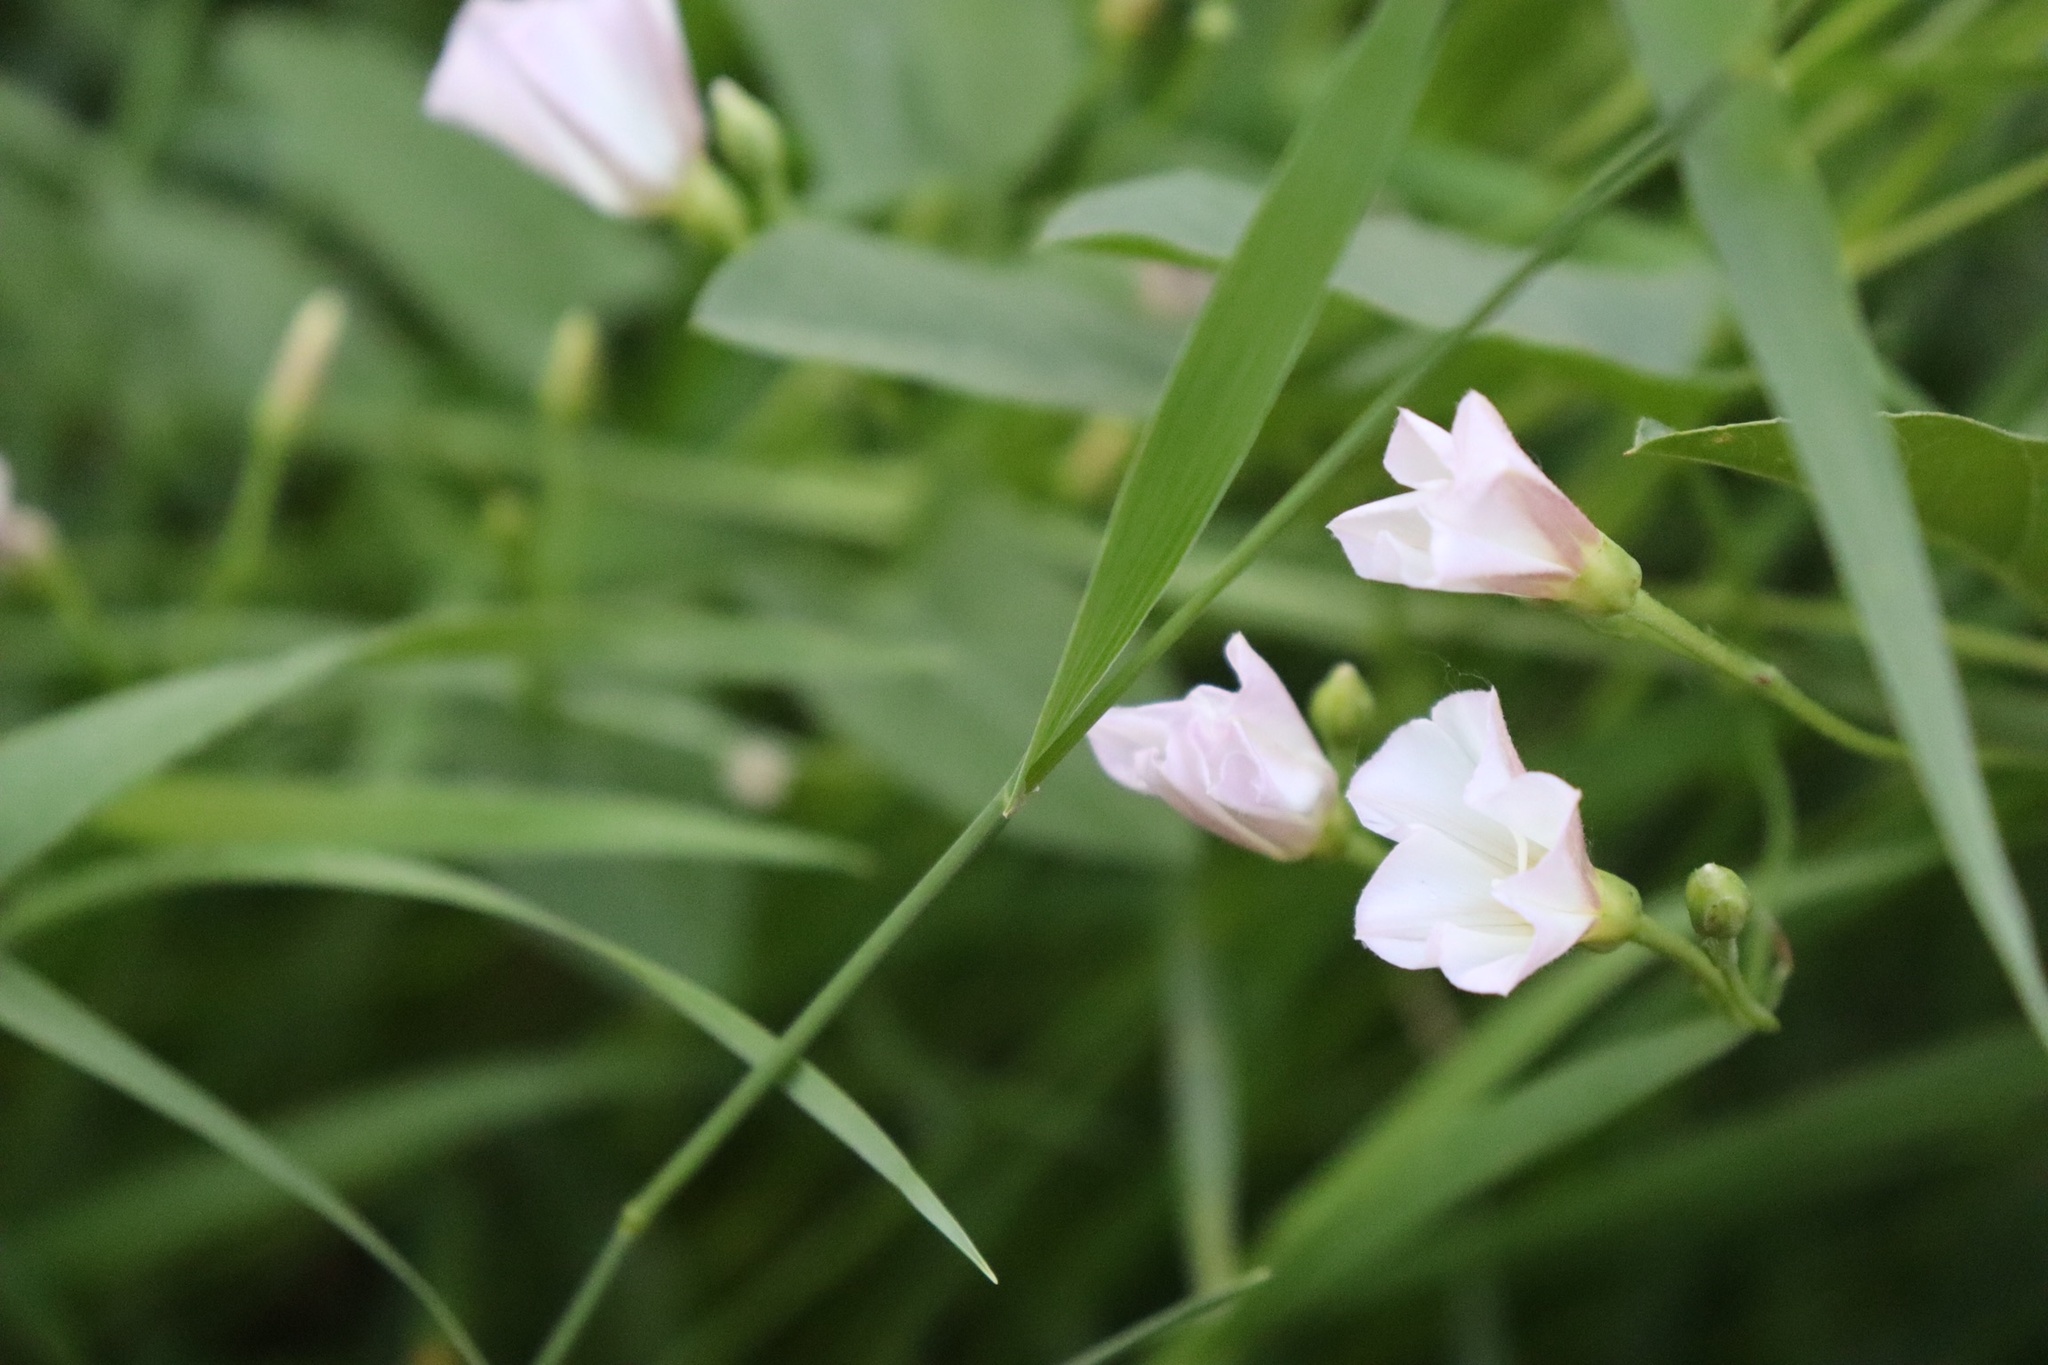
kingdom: Plantae
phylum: Tracheophyta
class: Magnoliopsida
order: Solanales
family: Convolvulaceae
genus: Convolvulus
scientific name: Convolvulus arvensis
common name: Field bindweed
